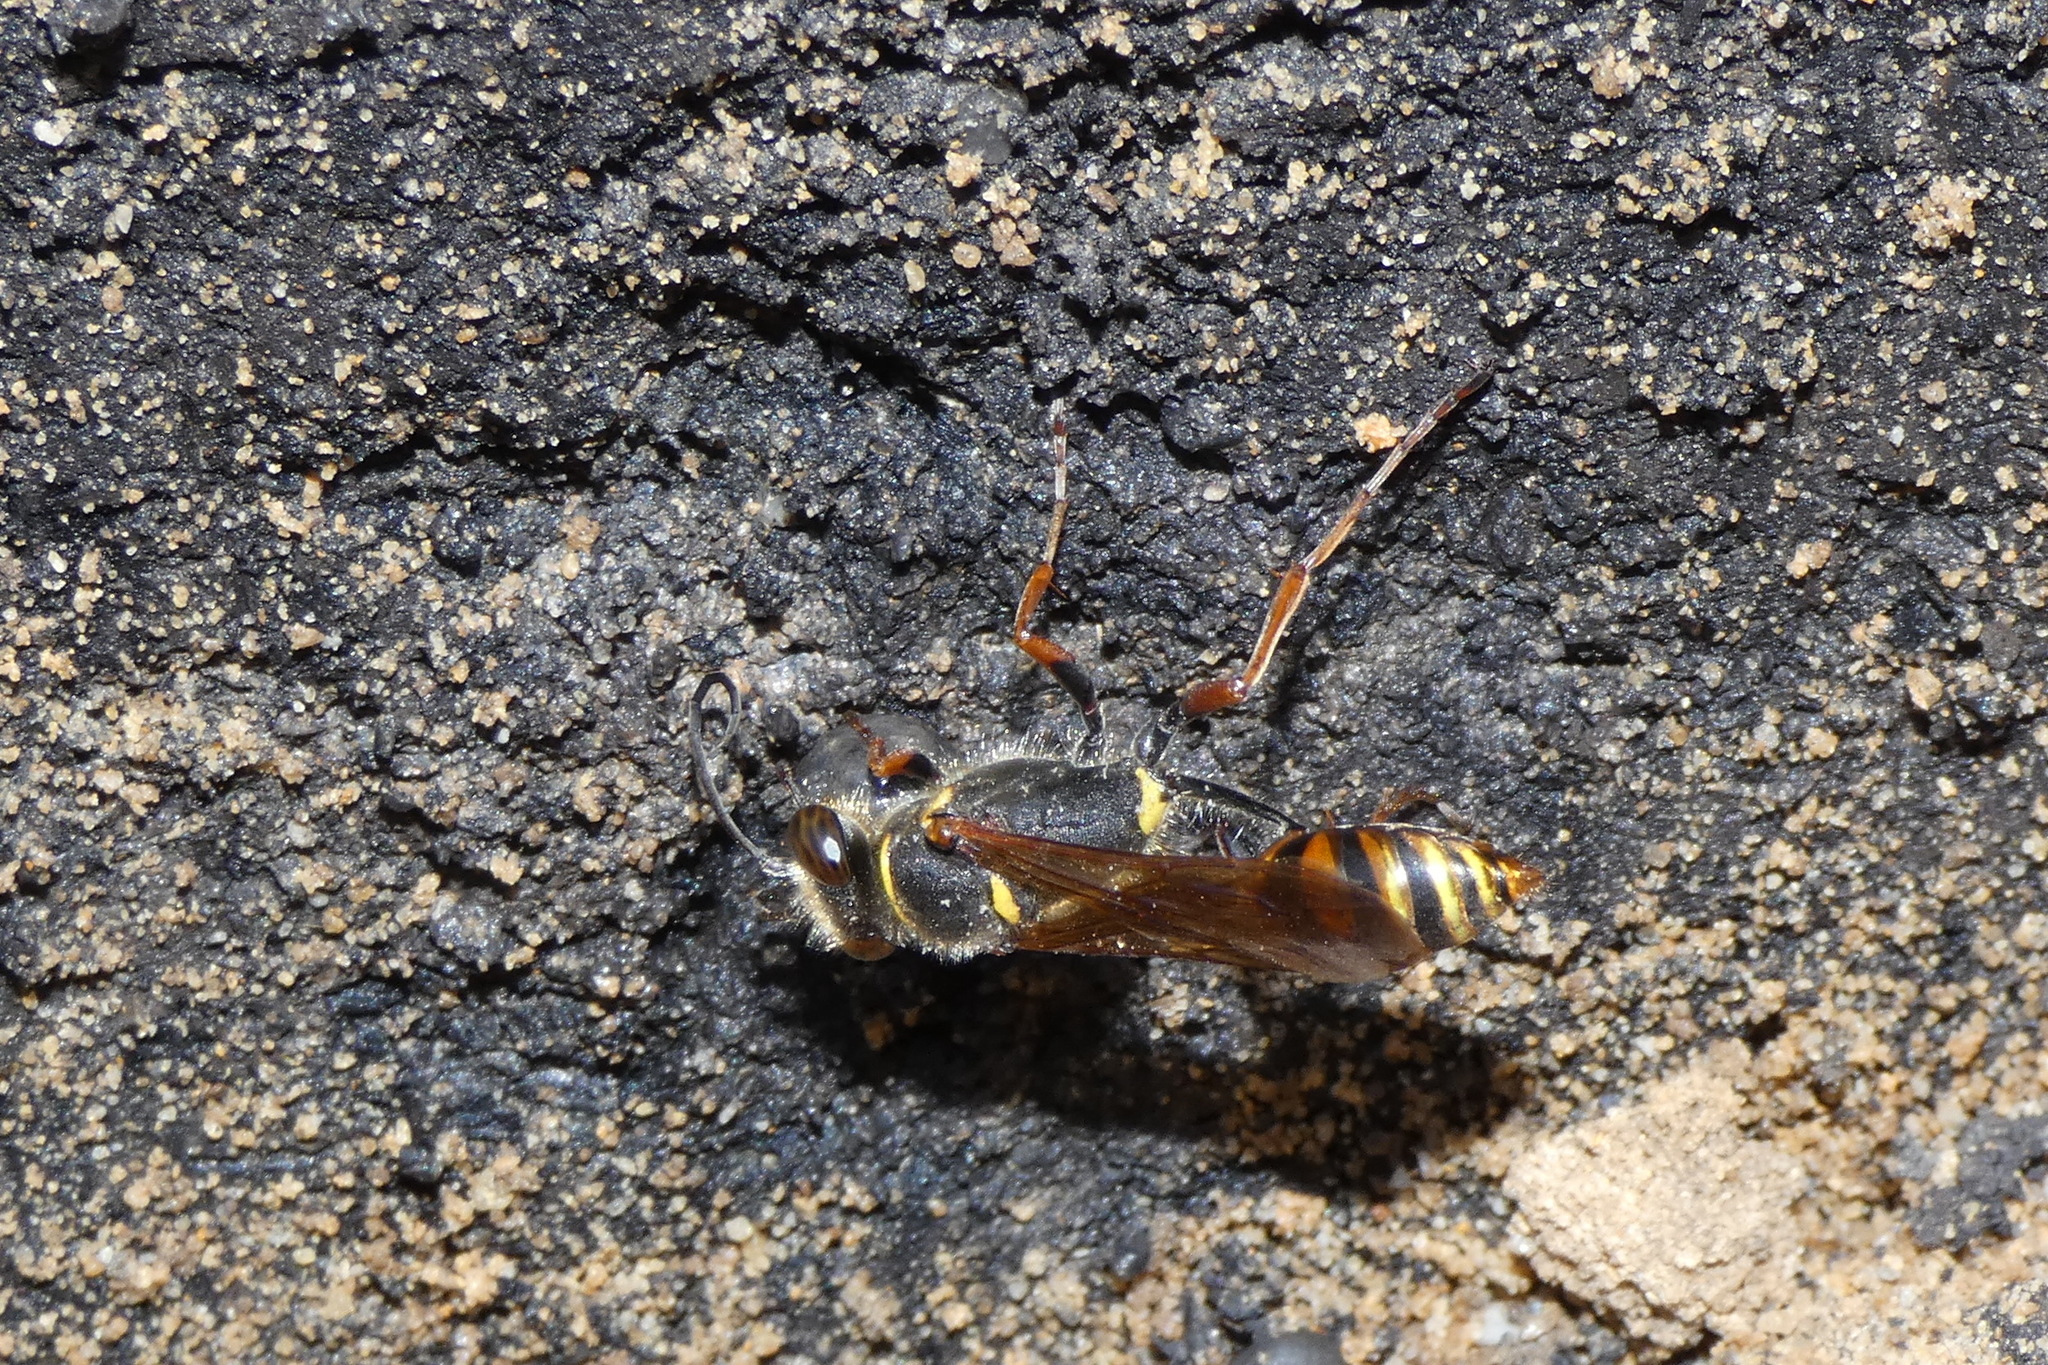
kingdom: Animalia
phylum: Arthropoda
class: Insecta
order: Hymenoptera
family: Sphecidae
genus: Sceliphron
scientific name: Sceliphron curvatum
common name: Pèlopèe
